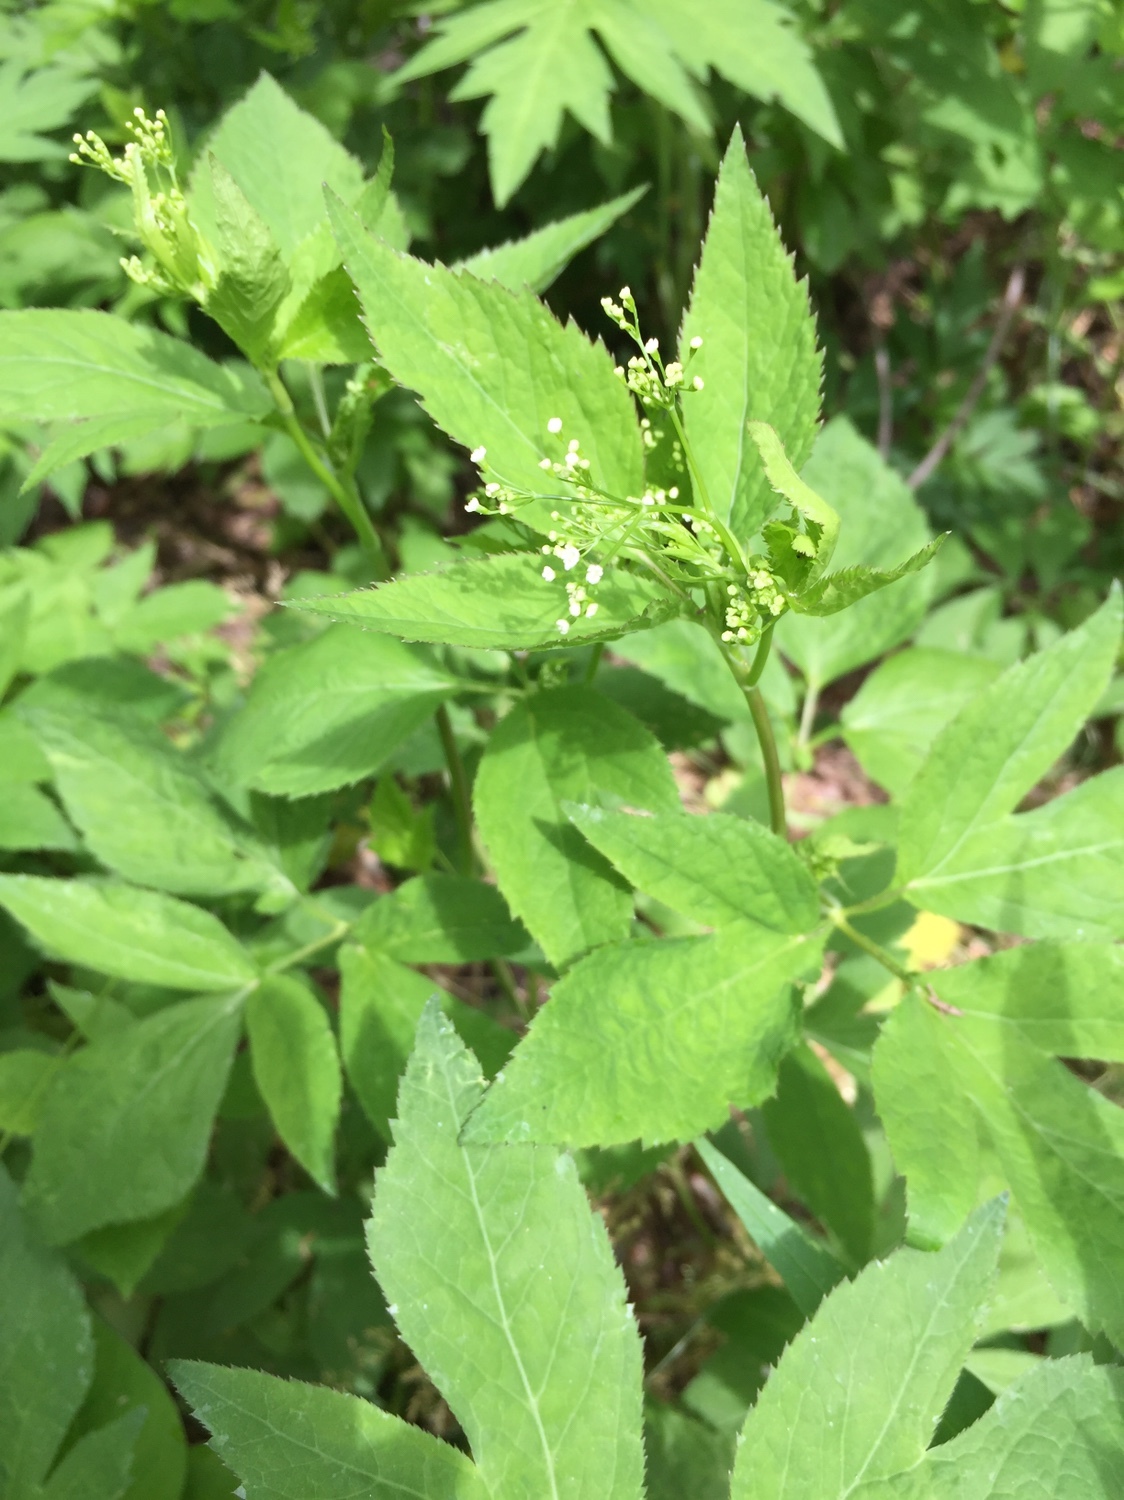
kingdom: Plantae
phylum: Tracheophyta
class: Magnoliopsida
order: Apiales
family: Apiaceae
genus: Cryptotaenia
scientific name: Cryptotaenia canadensis
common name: Honewort
